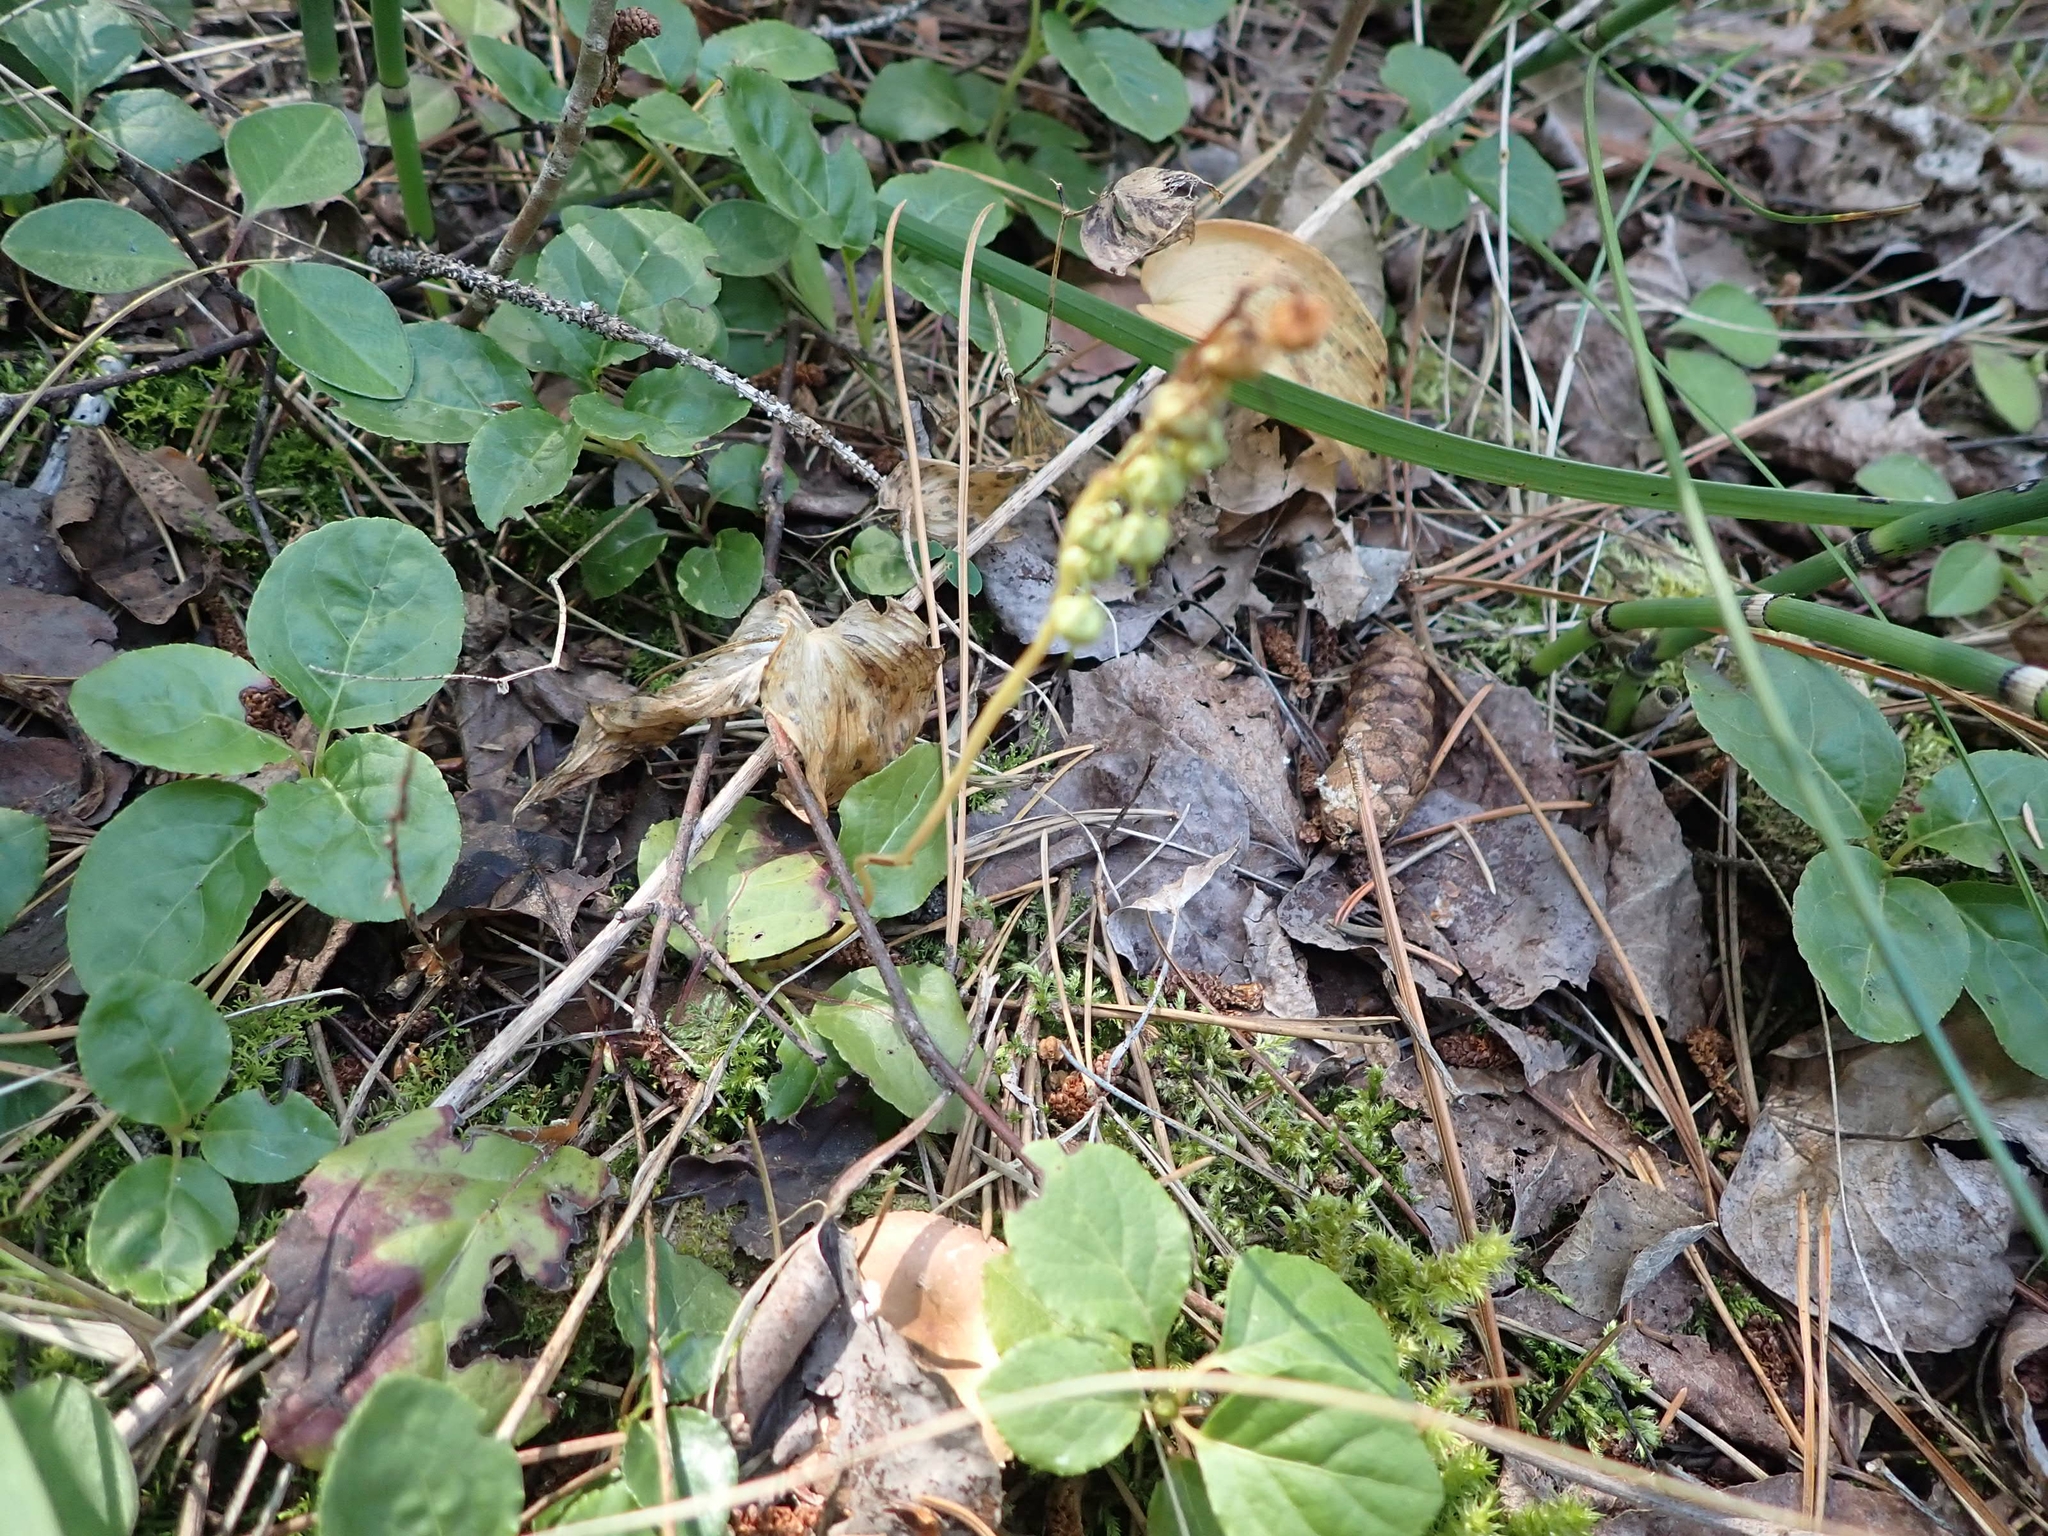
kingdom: Plantae
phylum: Tracheophyta
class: Magnoliopsida
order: Ericales
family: Ericaceae
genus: Orthilia
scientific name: Orthilia secunda
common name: One-sided orthilia
